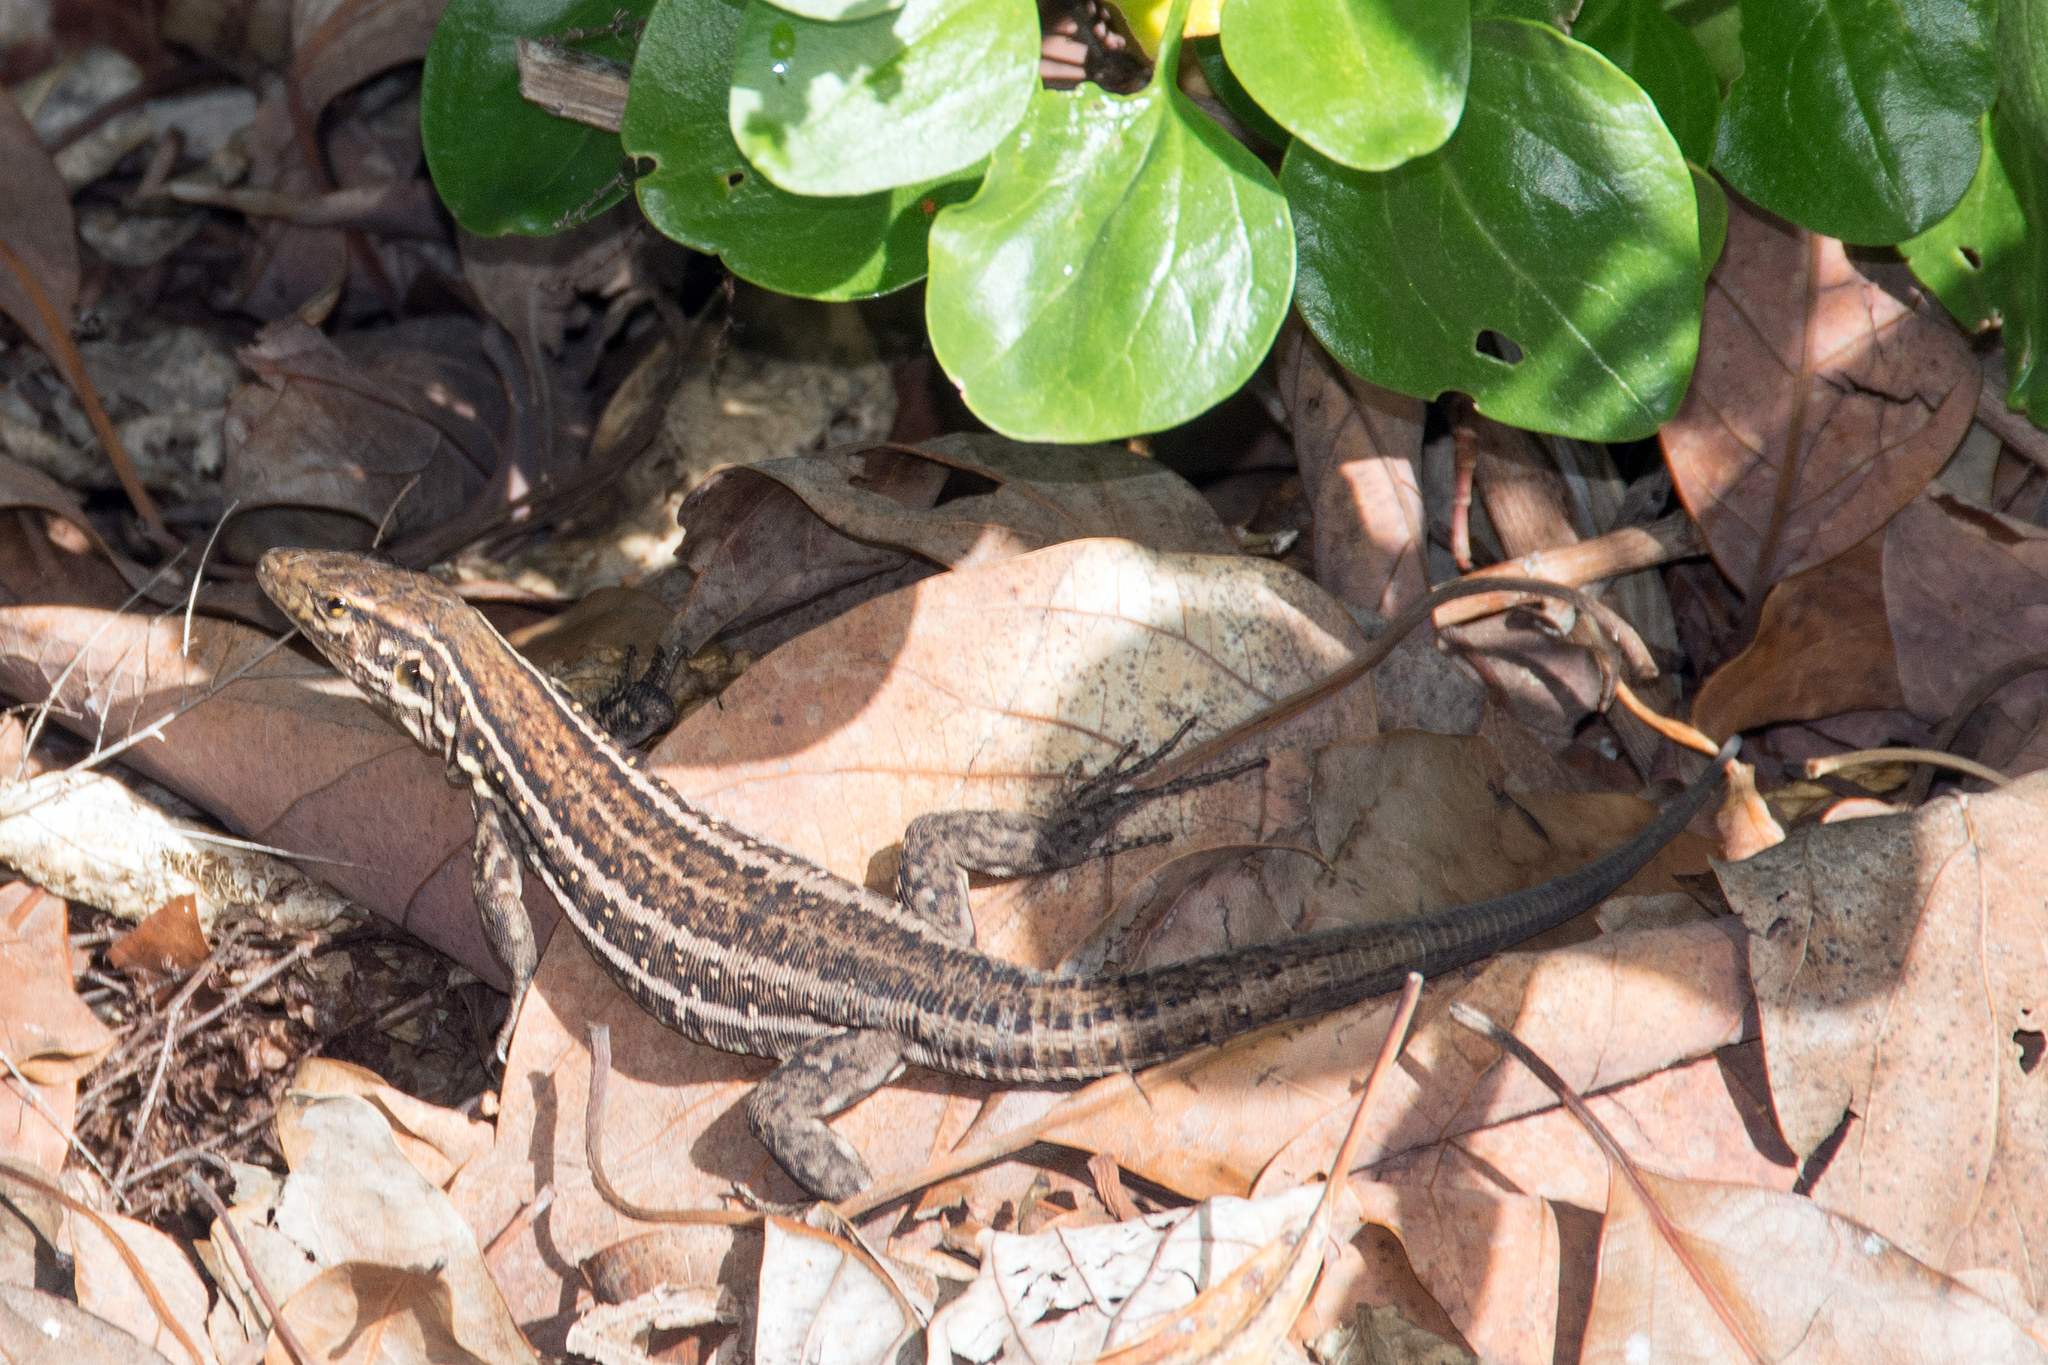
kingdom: Animalia
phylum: Chordata
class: Squamata
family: Lacertidae
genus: Gallotia
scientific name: Gallotia galloti
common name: Gallot's lizard
